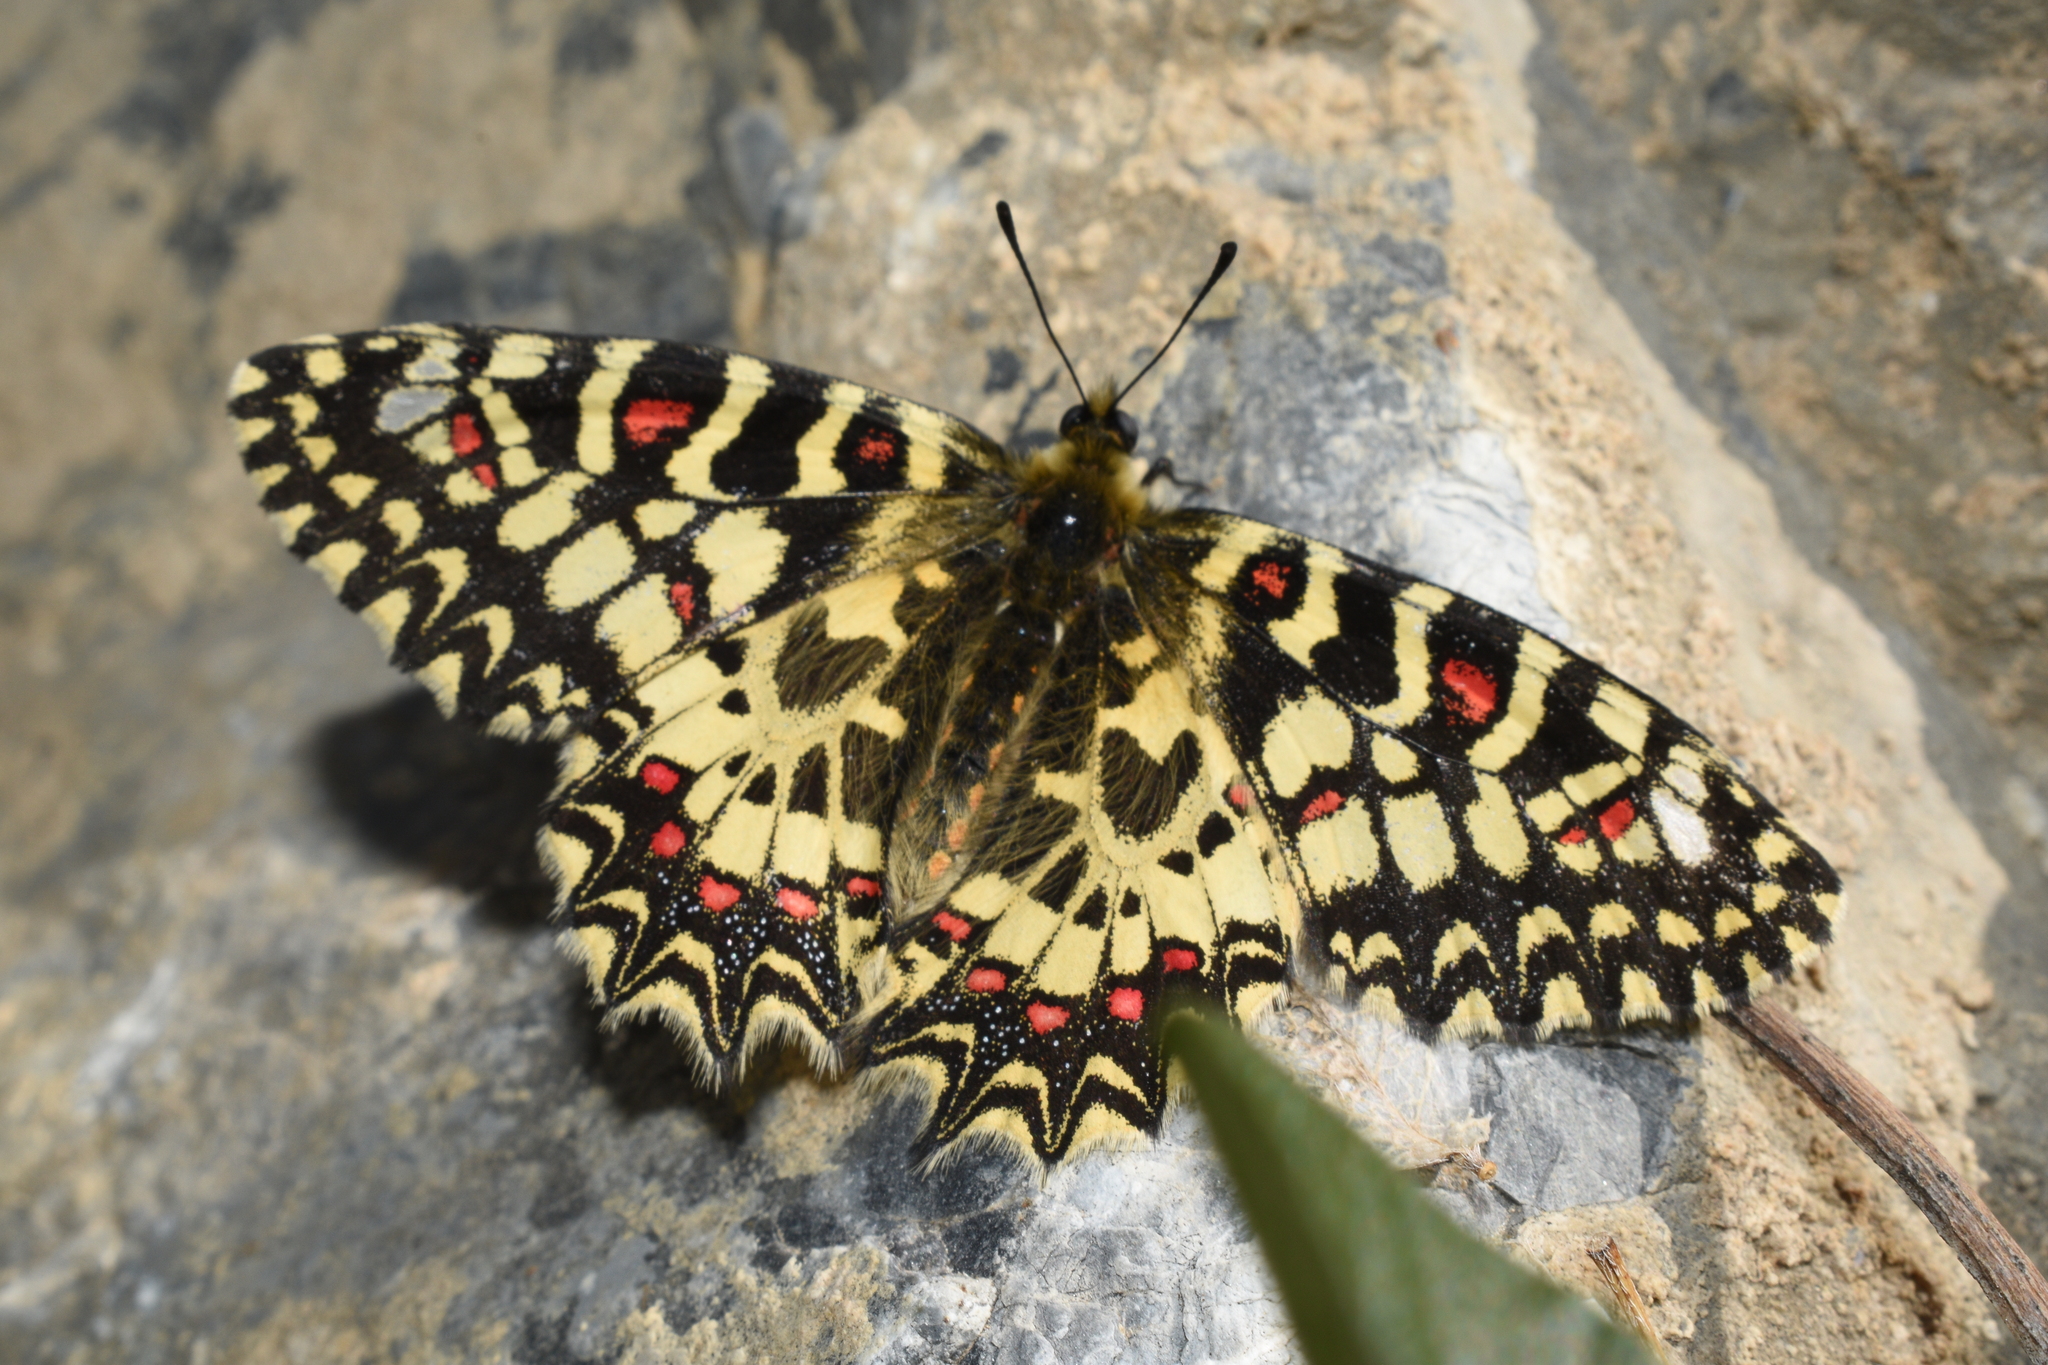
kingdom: Animalia
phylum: Arthropoda
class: Insecta
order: Lepidoptera
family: Papilionidae
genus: Zerynthia
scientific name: Zerynthia rumina
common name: Spanish festoon
